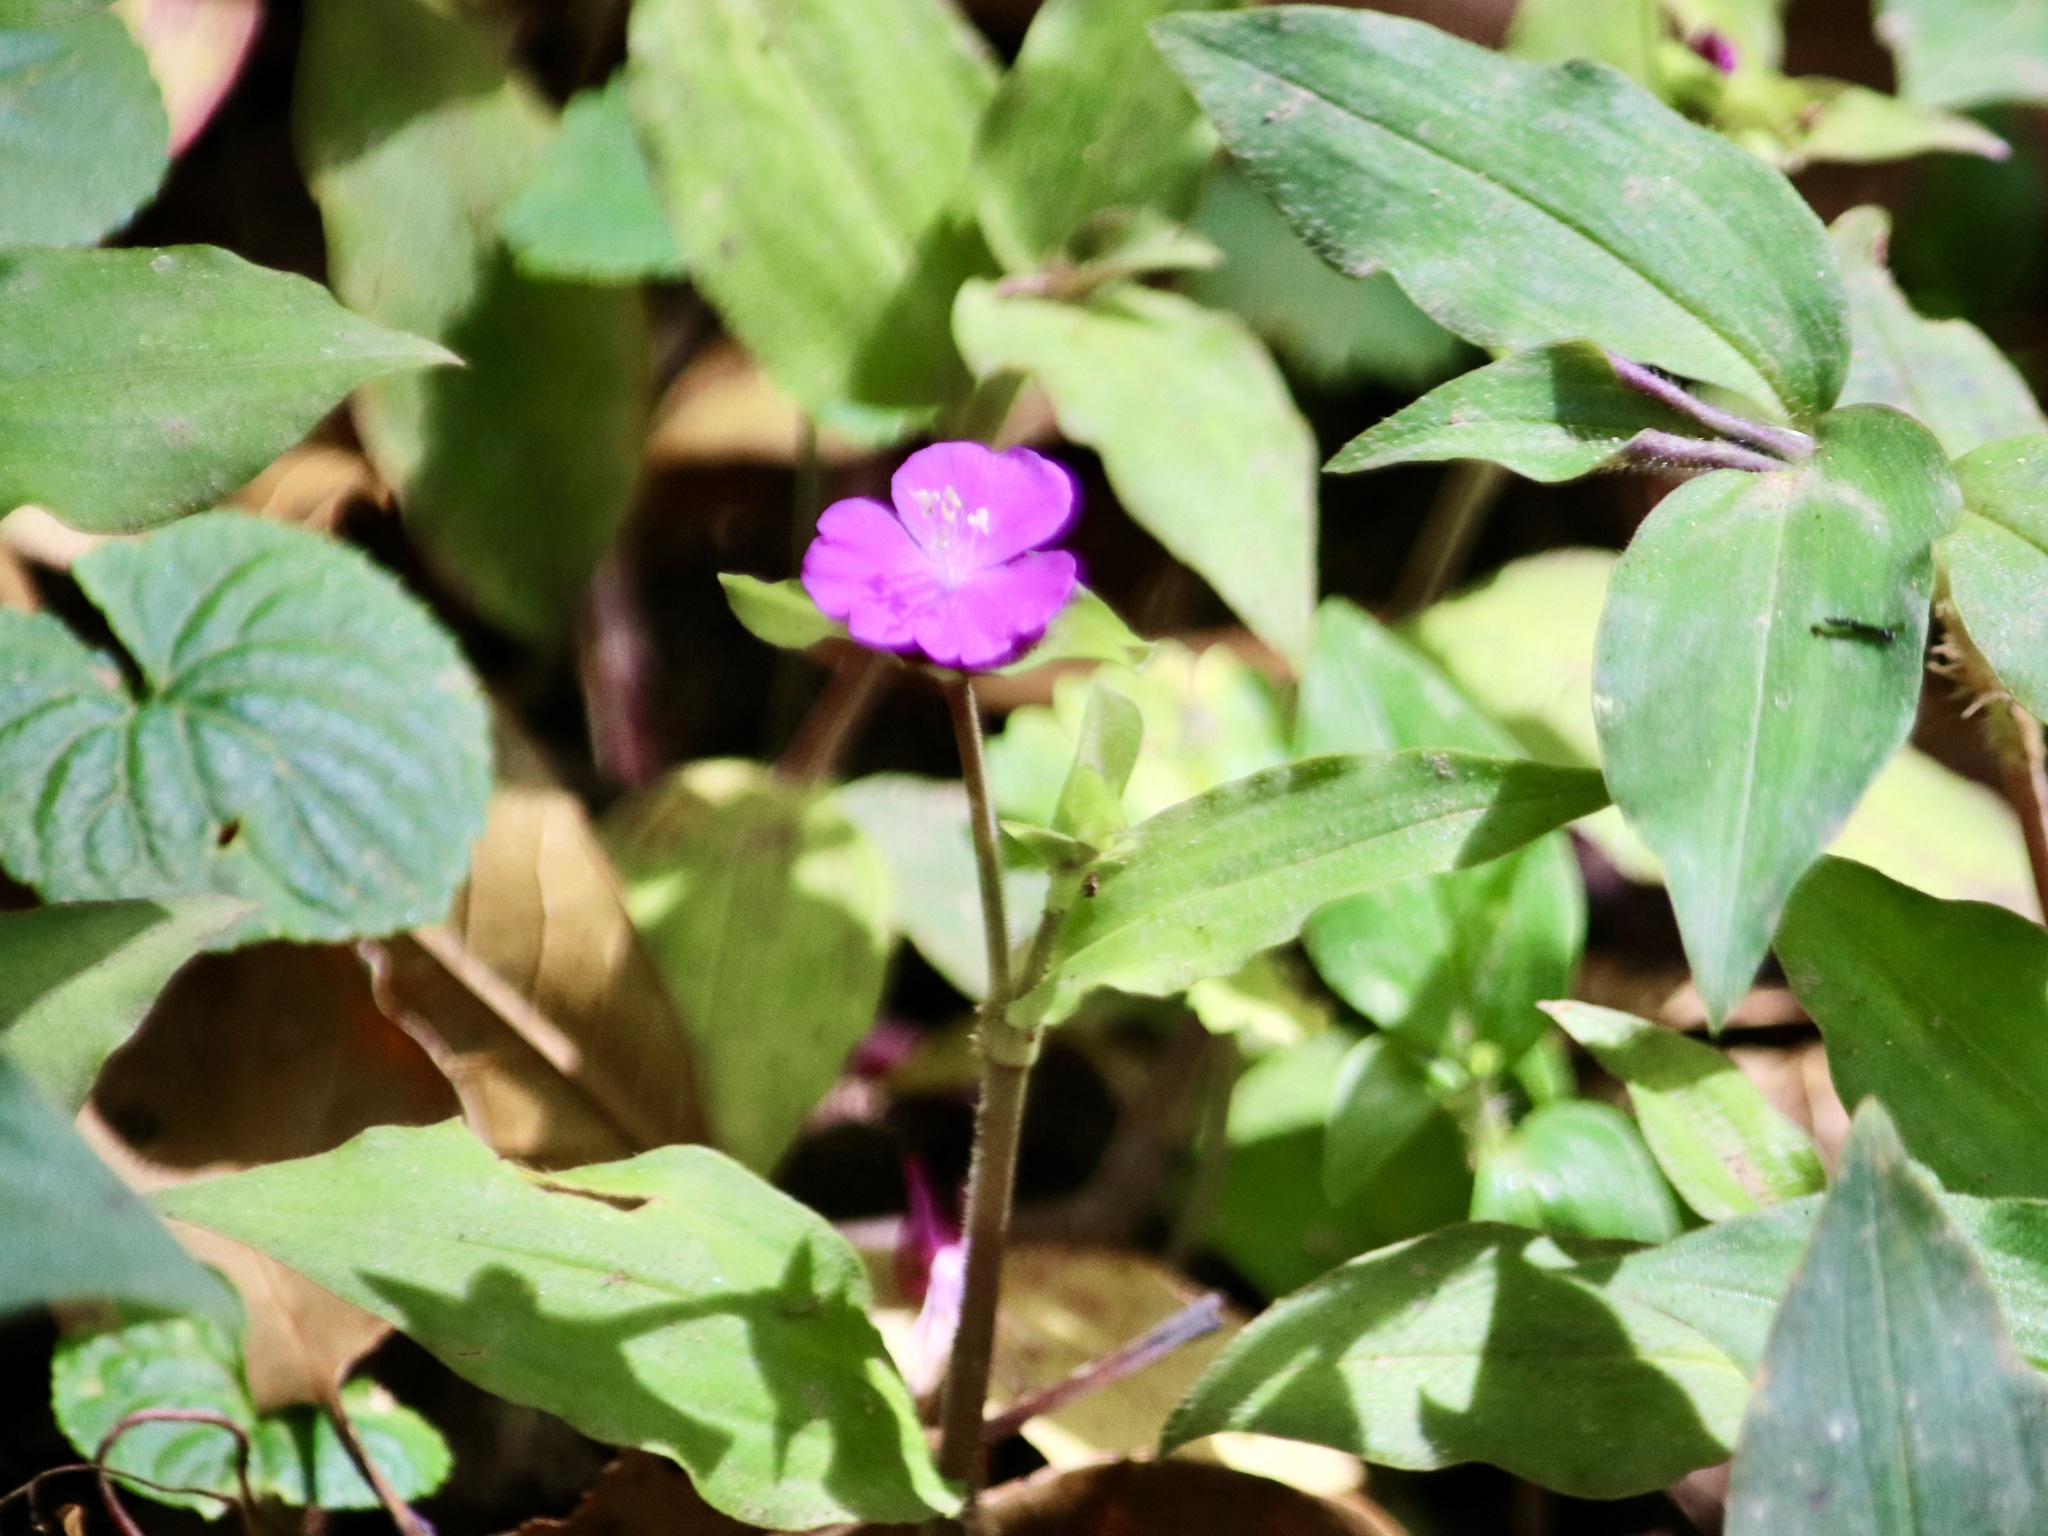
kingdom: Plantae
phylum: Tracheophyta
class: Liliopsida
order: Commelinales
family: Commelinaceae
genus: Tradescantia
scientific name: Tradescantia poelliae
